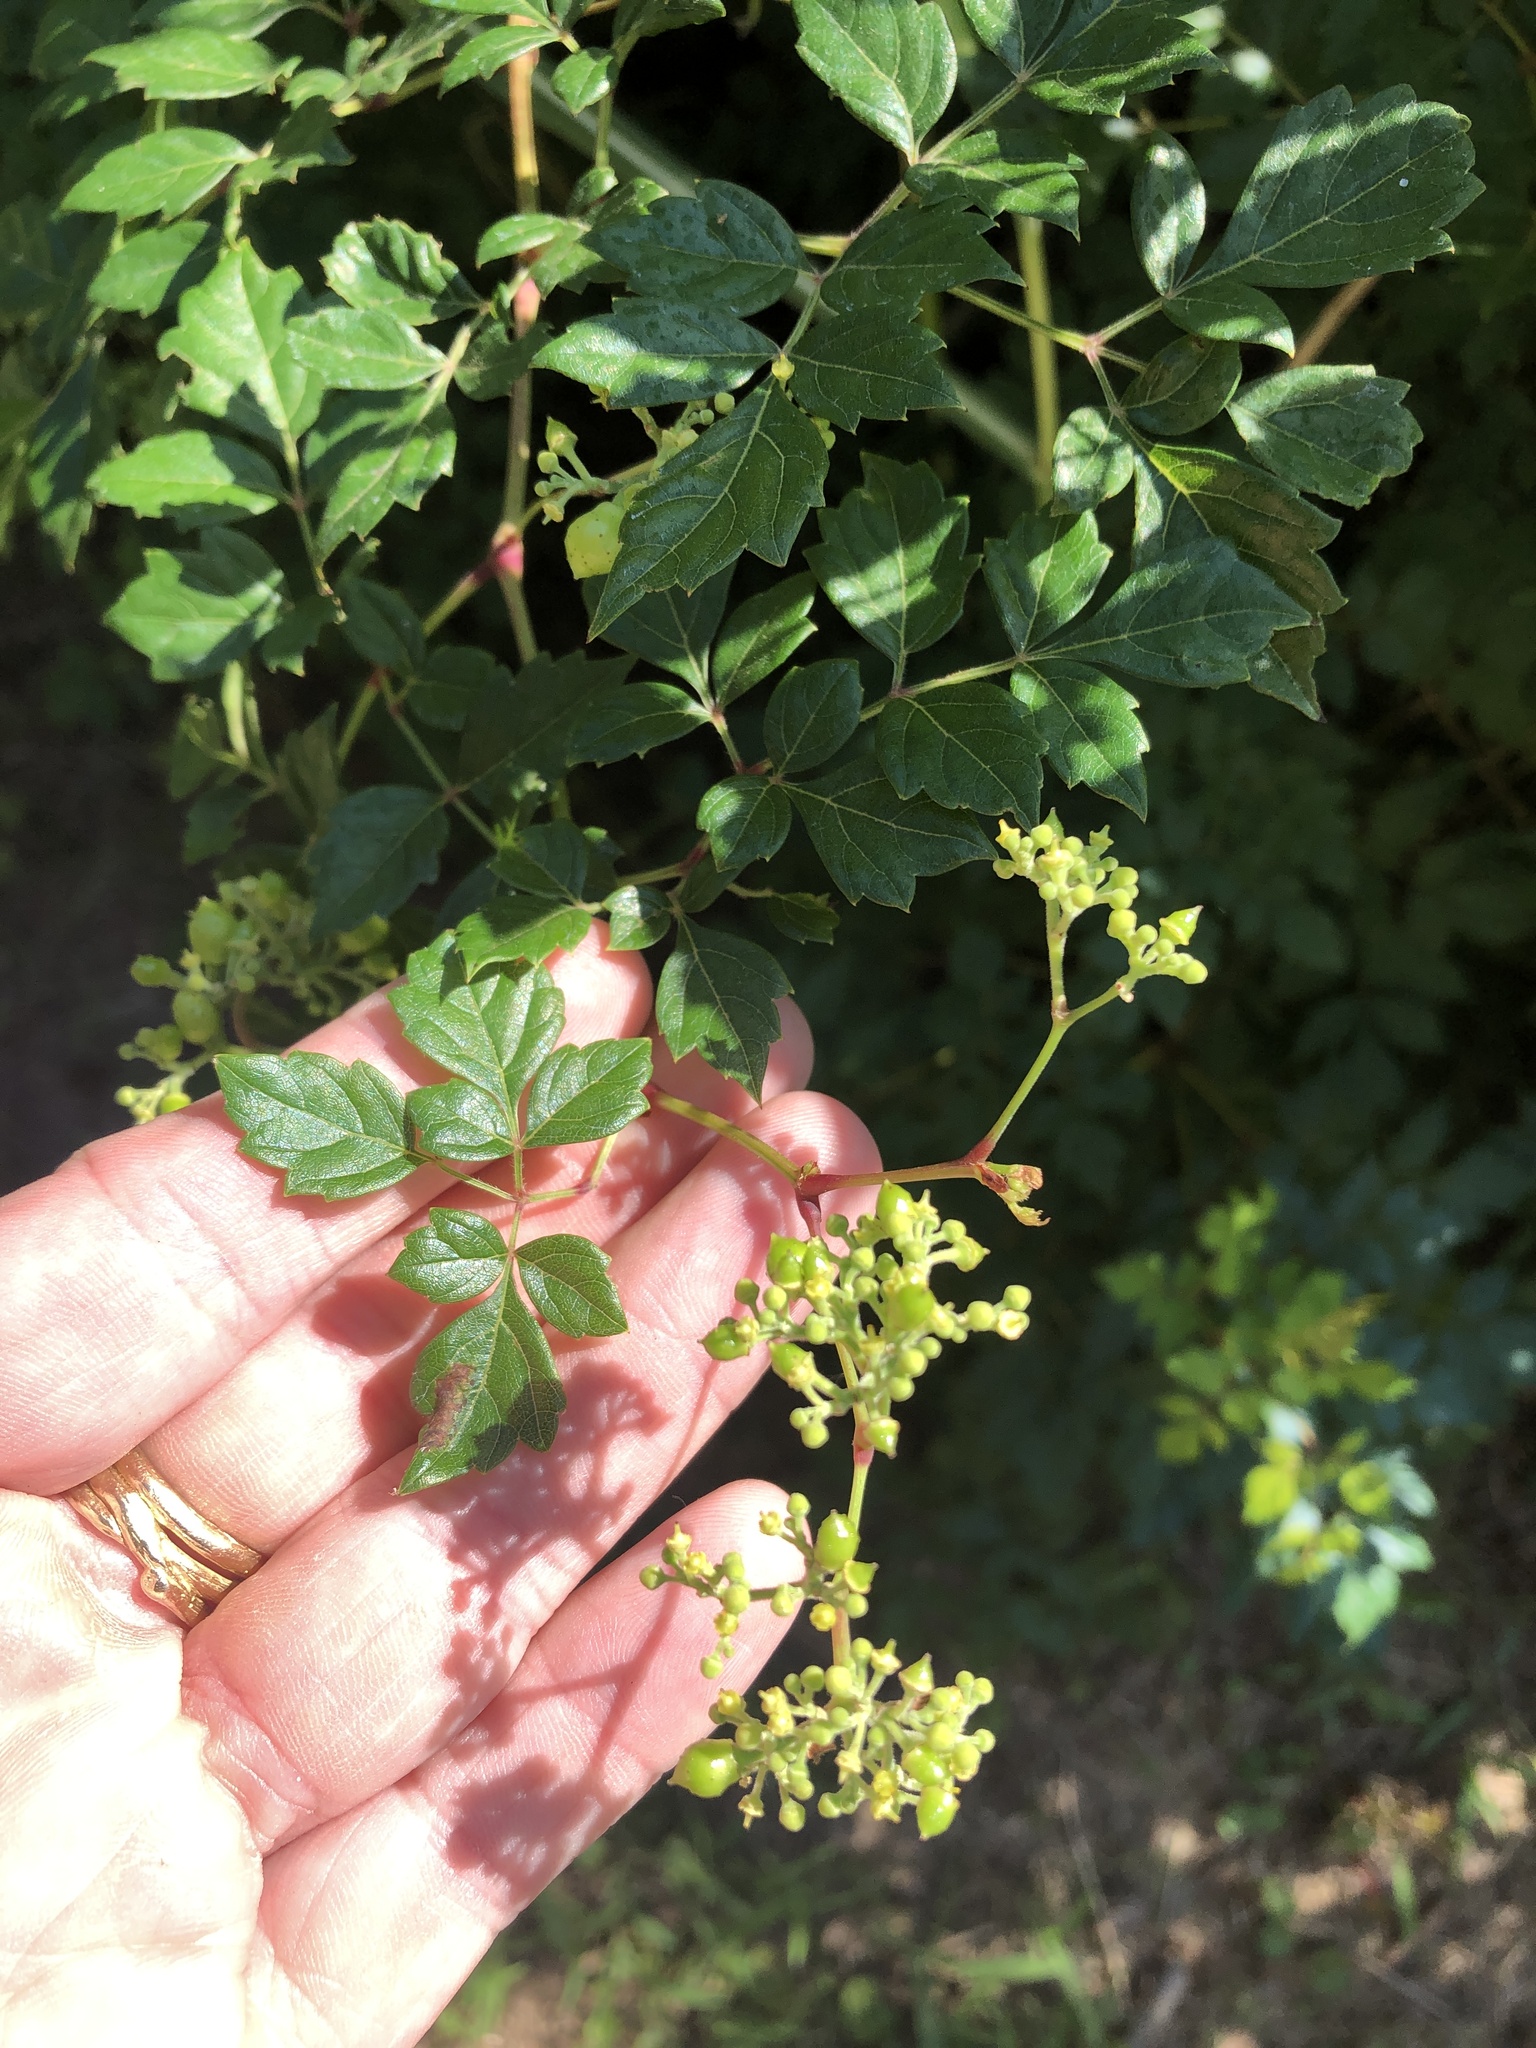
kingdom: Plantae
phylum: Tracheophyta
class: Magnoliopsida
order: Vitales
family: Vitaceae
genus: Nekemias
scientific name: Nekemias arborea
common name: Peppervine
